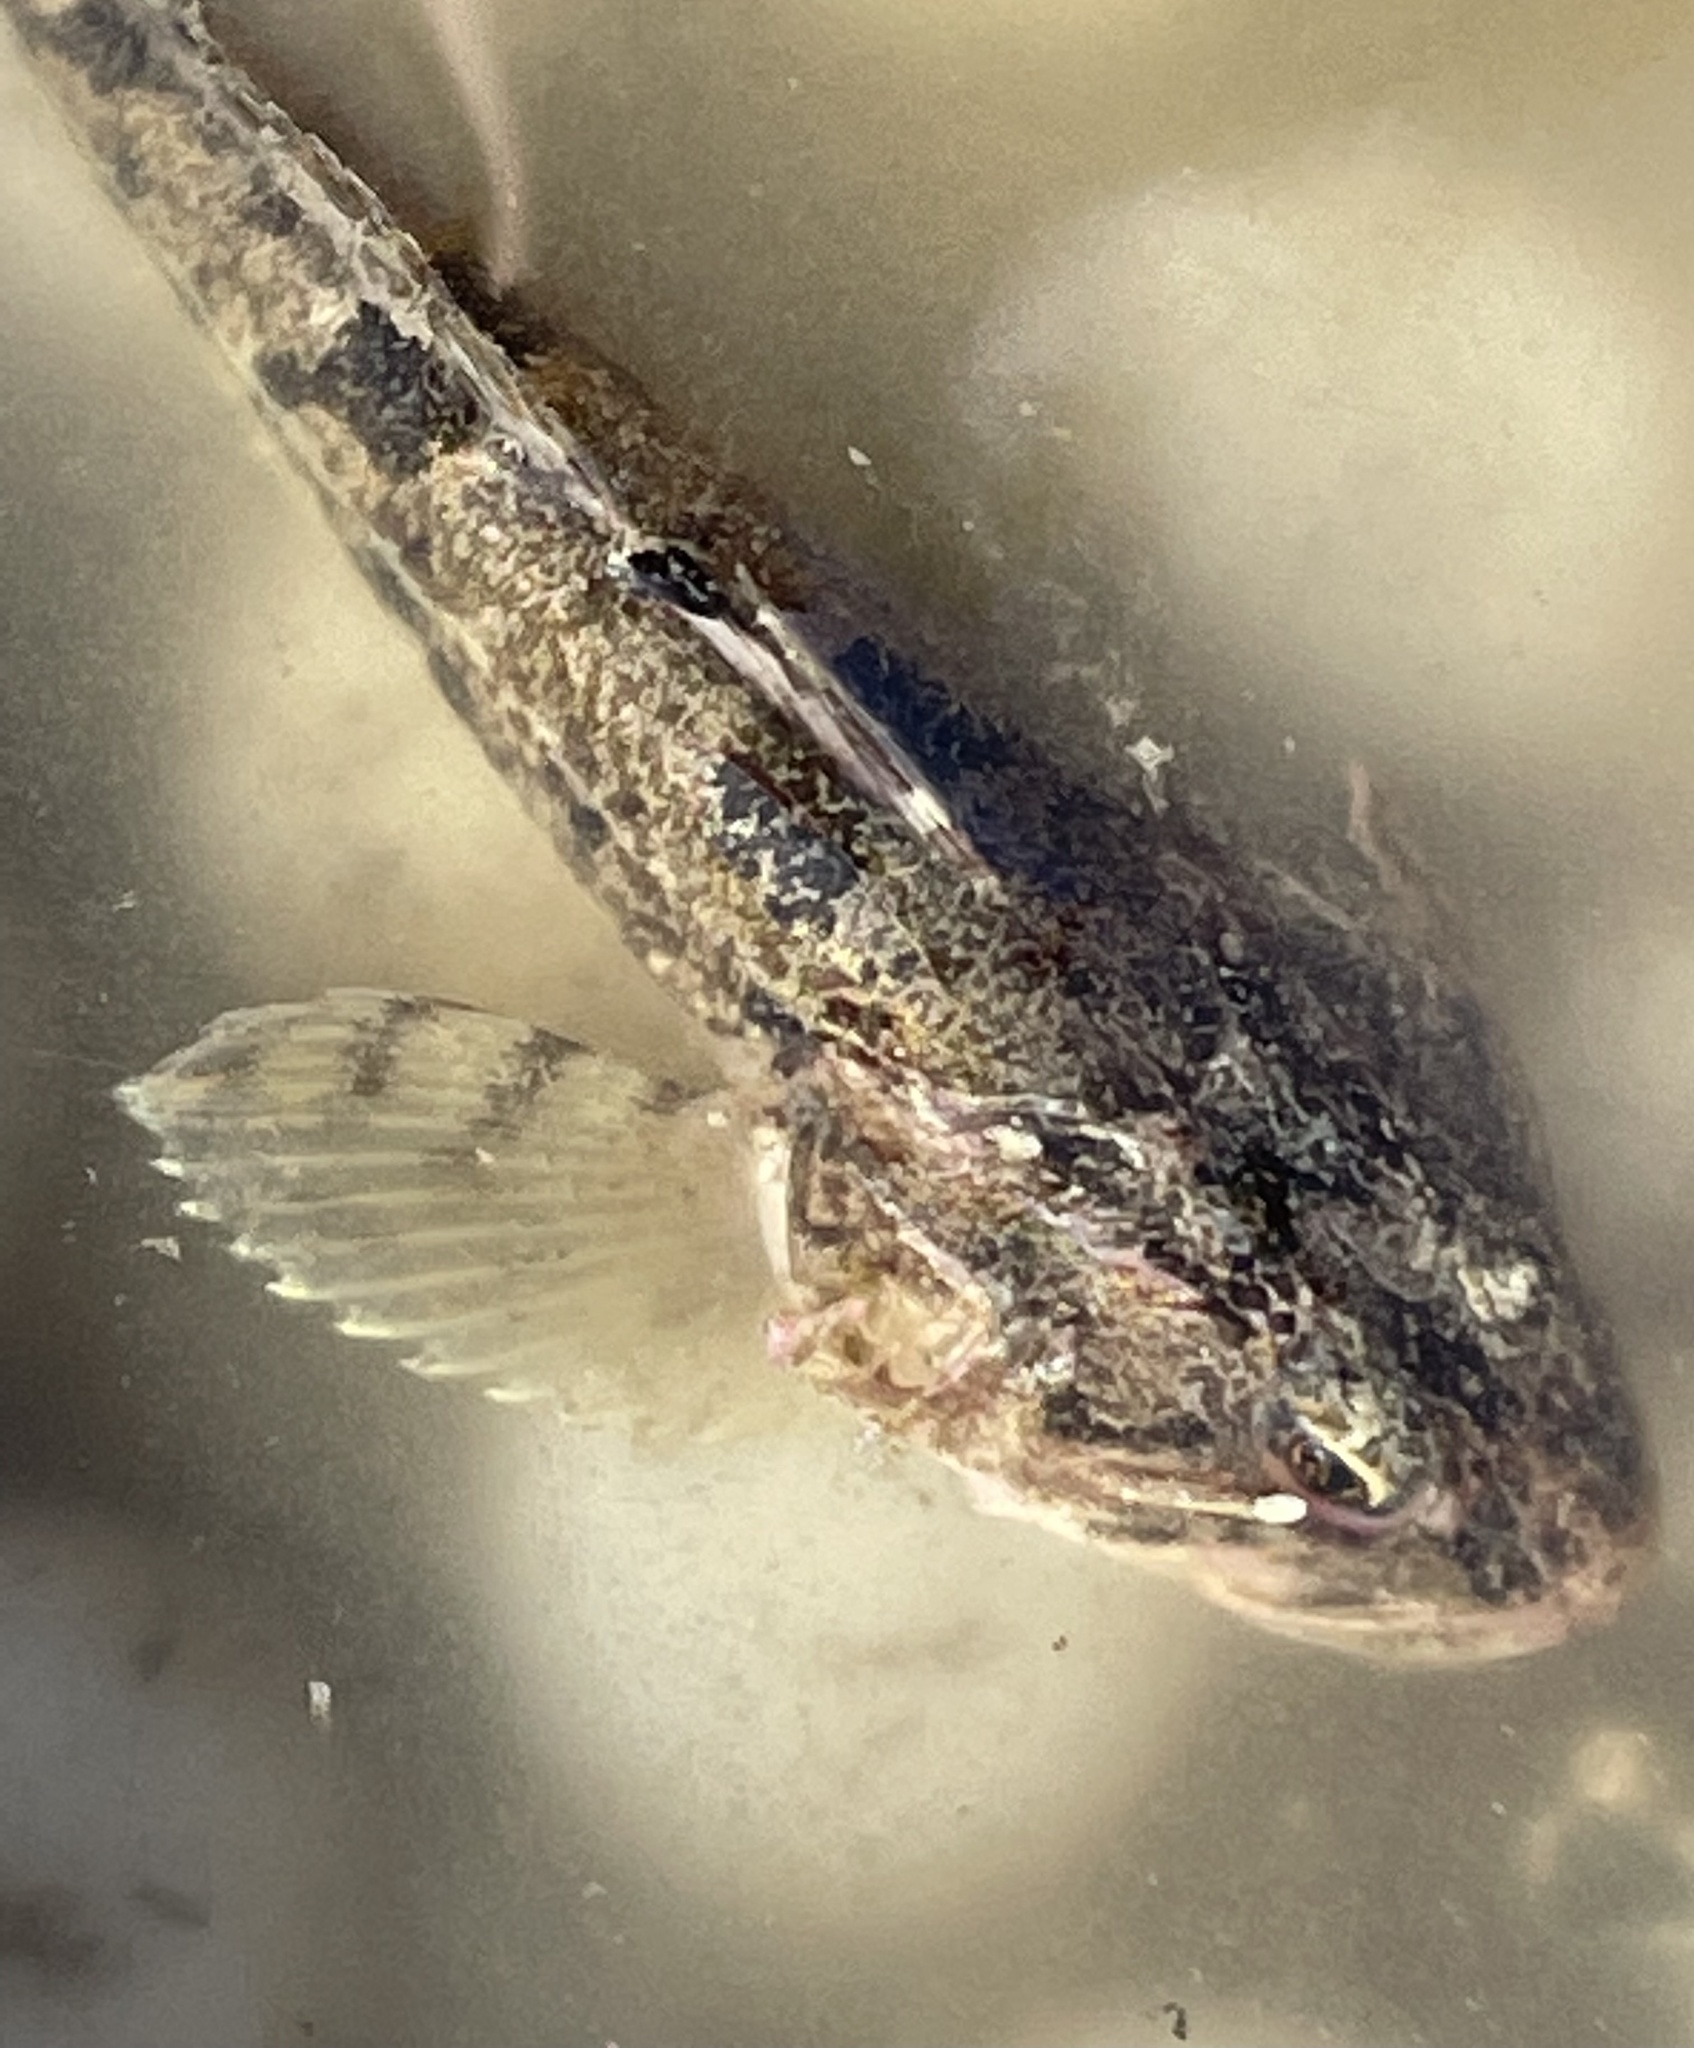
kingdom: Animalia
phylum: Chordata
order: Scorpaeniformes
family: Cottidae
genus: Leptocottus
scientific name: Leptocottus armatus
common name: Pacific staghorn sculpin
